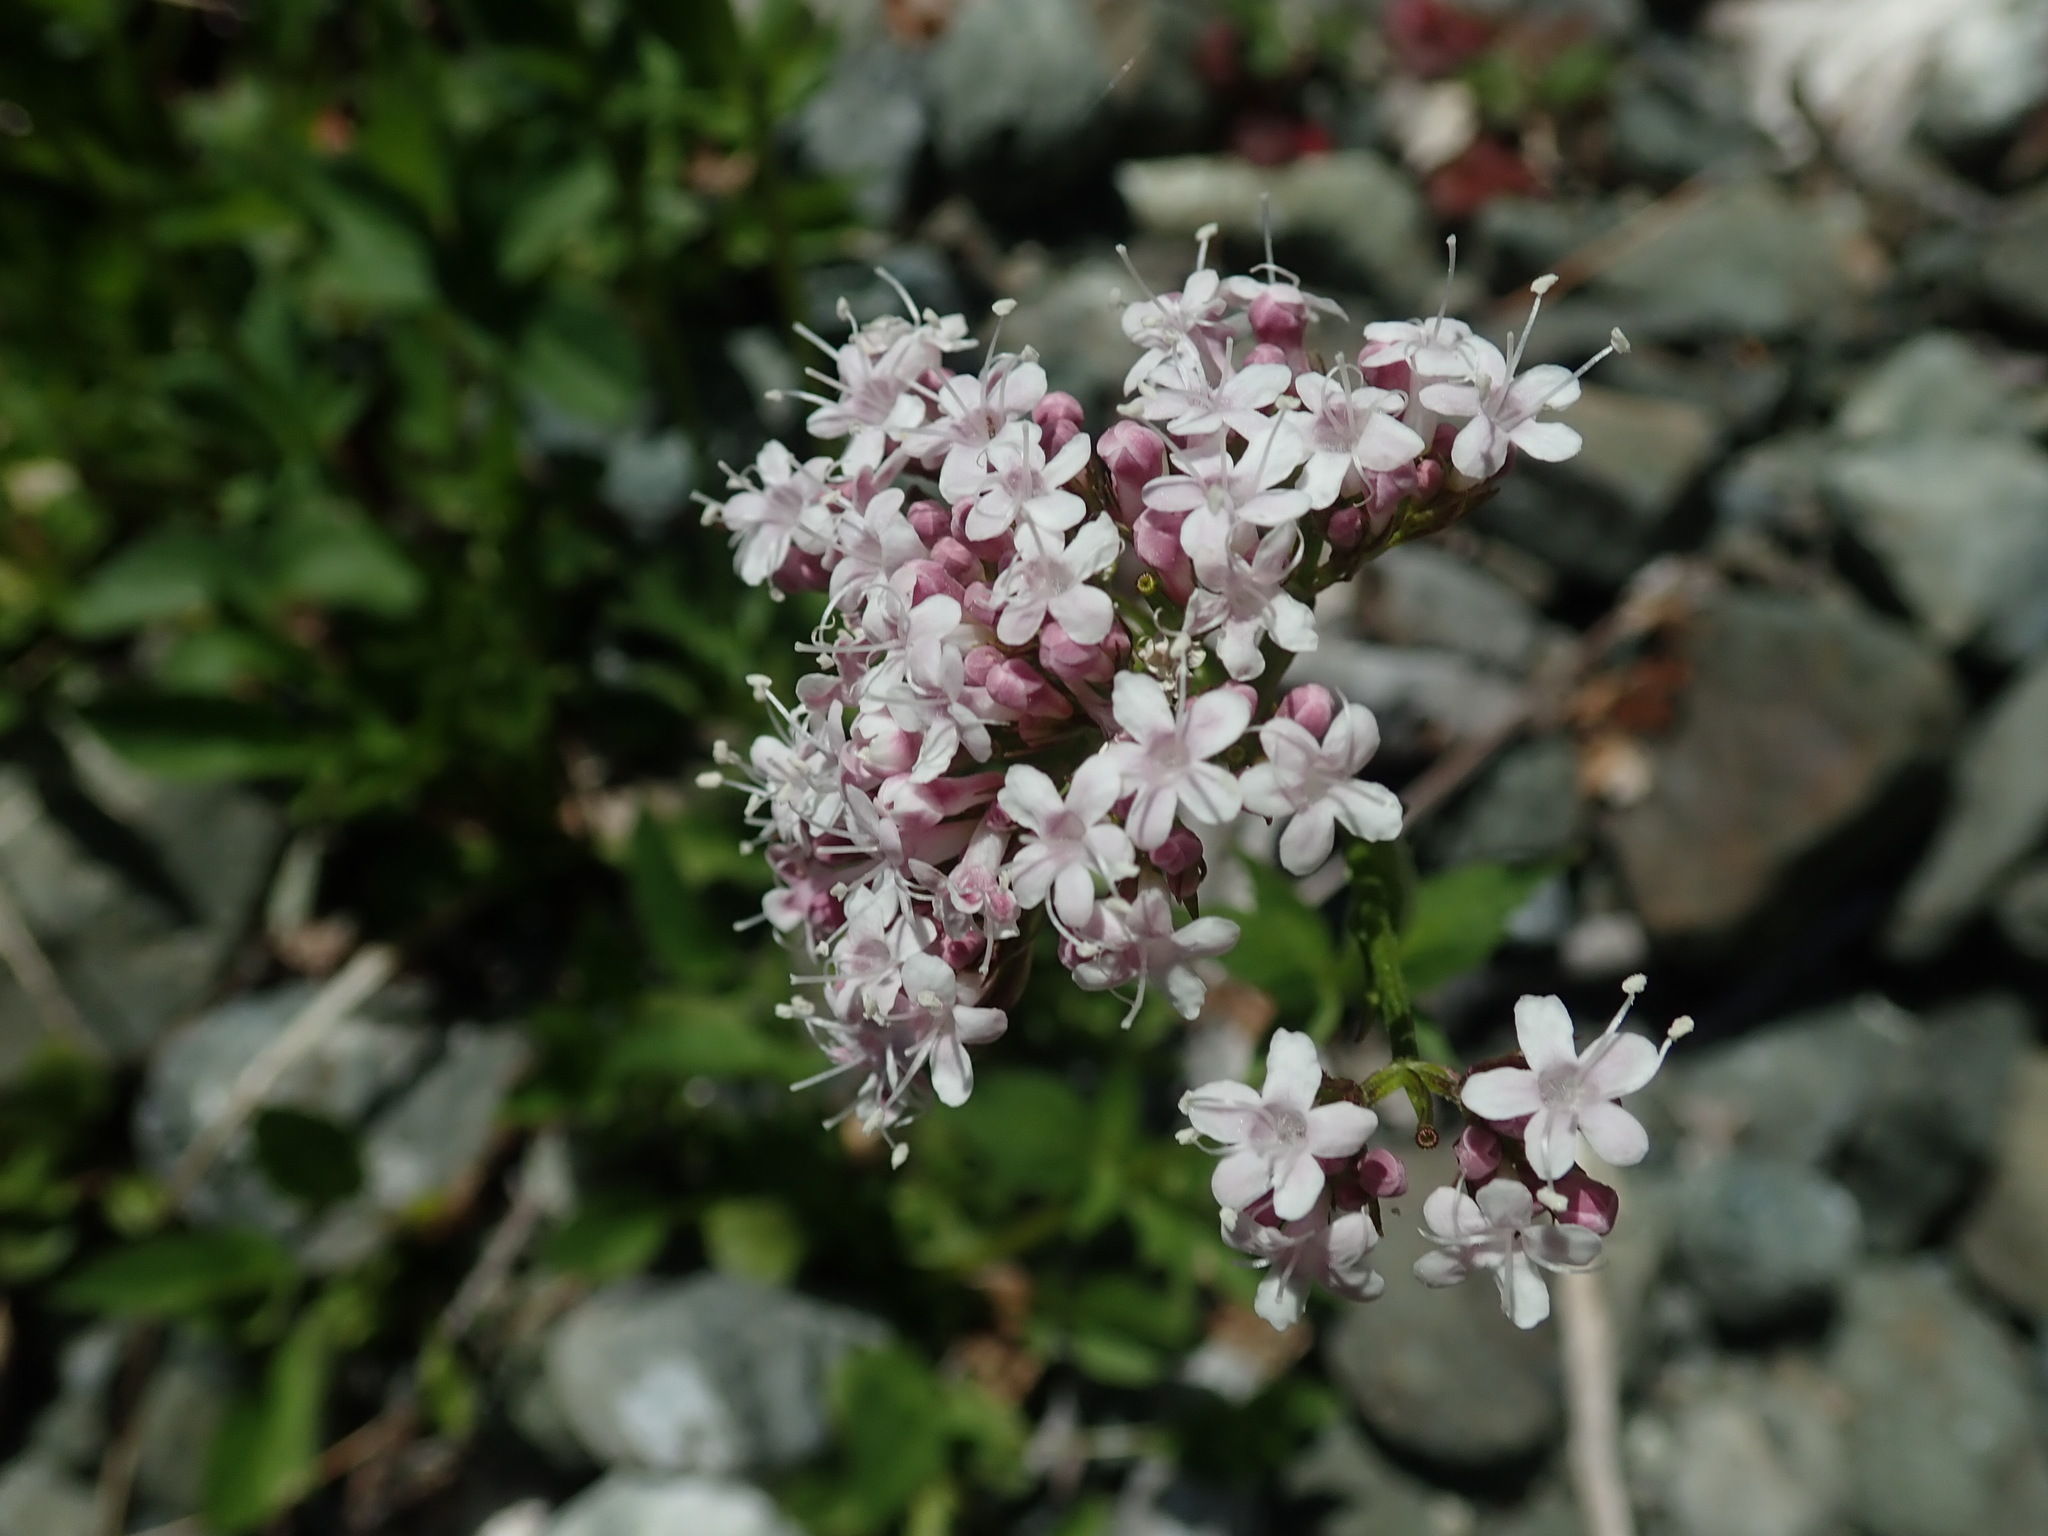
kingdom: Plantae
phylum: Tracheophyta
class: Magnoliopsida
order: Dipsacales
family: Caprifoliaceae
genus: Valeriana
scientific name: Valeriana sitchensis
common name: Pacific valerian
